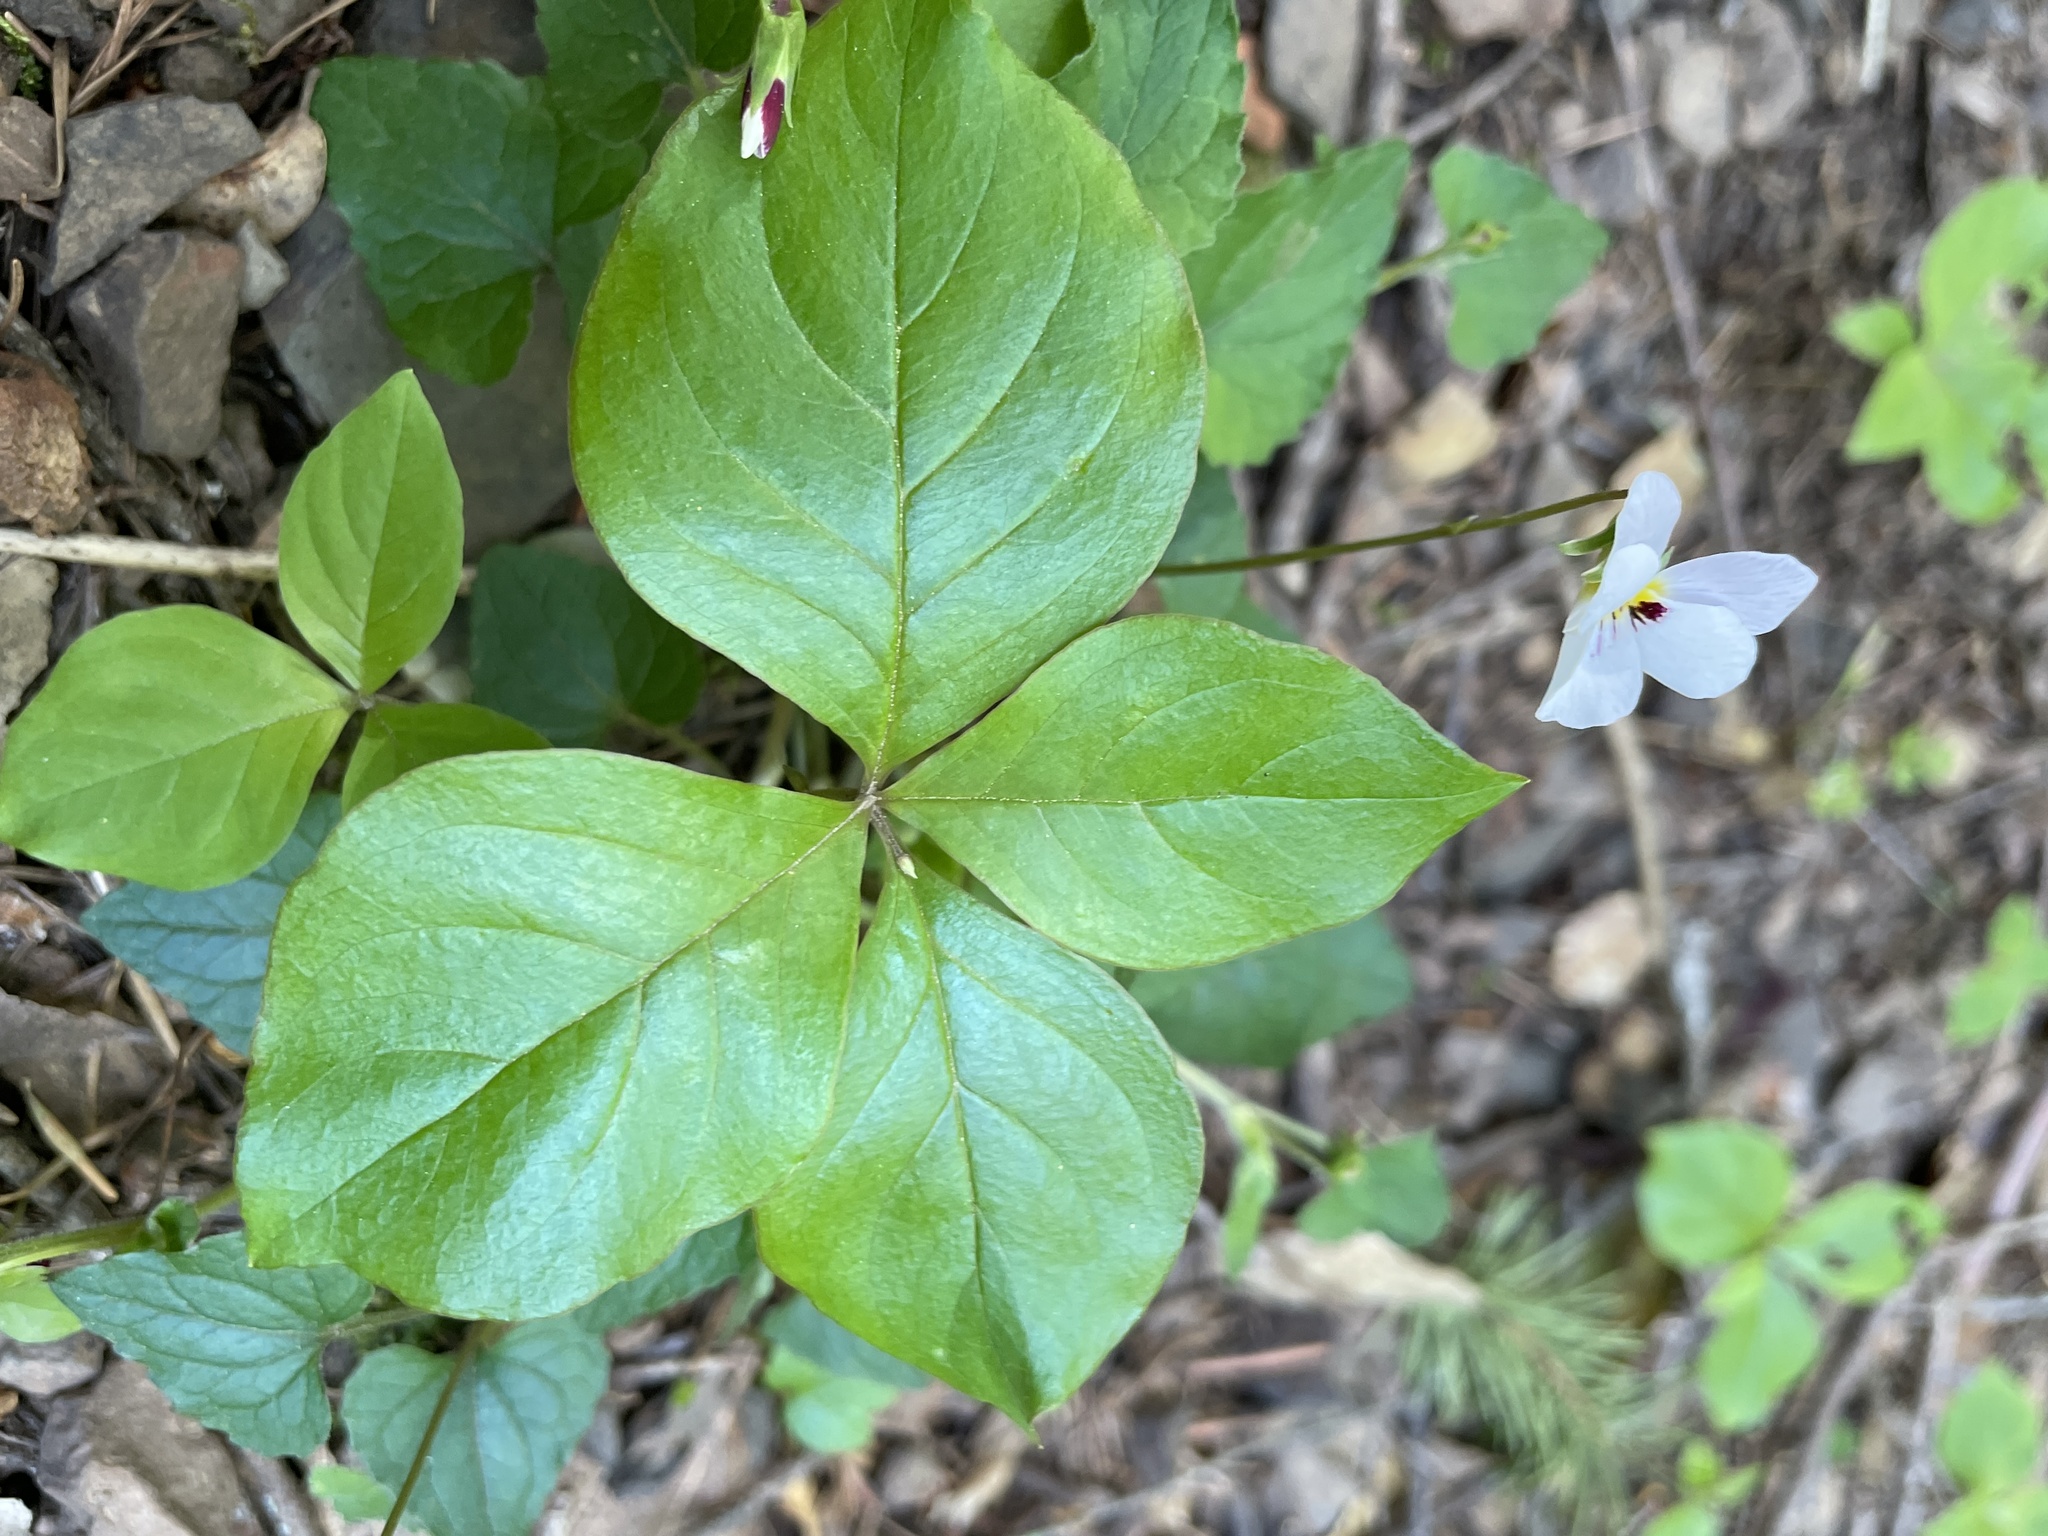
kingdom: Plantae
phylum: Tracheophyta
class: Magnoliopsida
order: Malpighiales
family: Violaceae
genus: Viola
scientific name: Viola ocellata
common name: Western heart's ease
